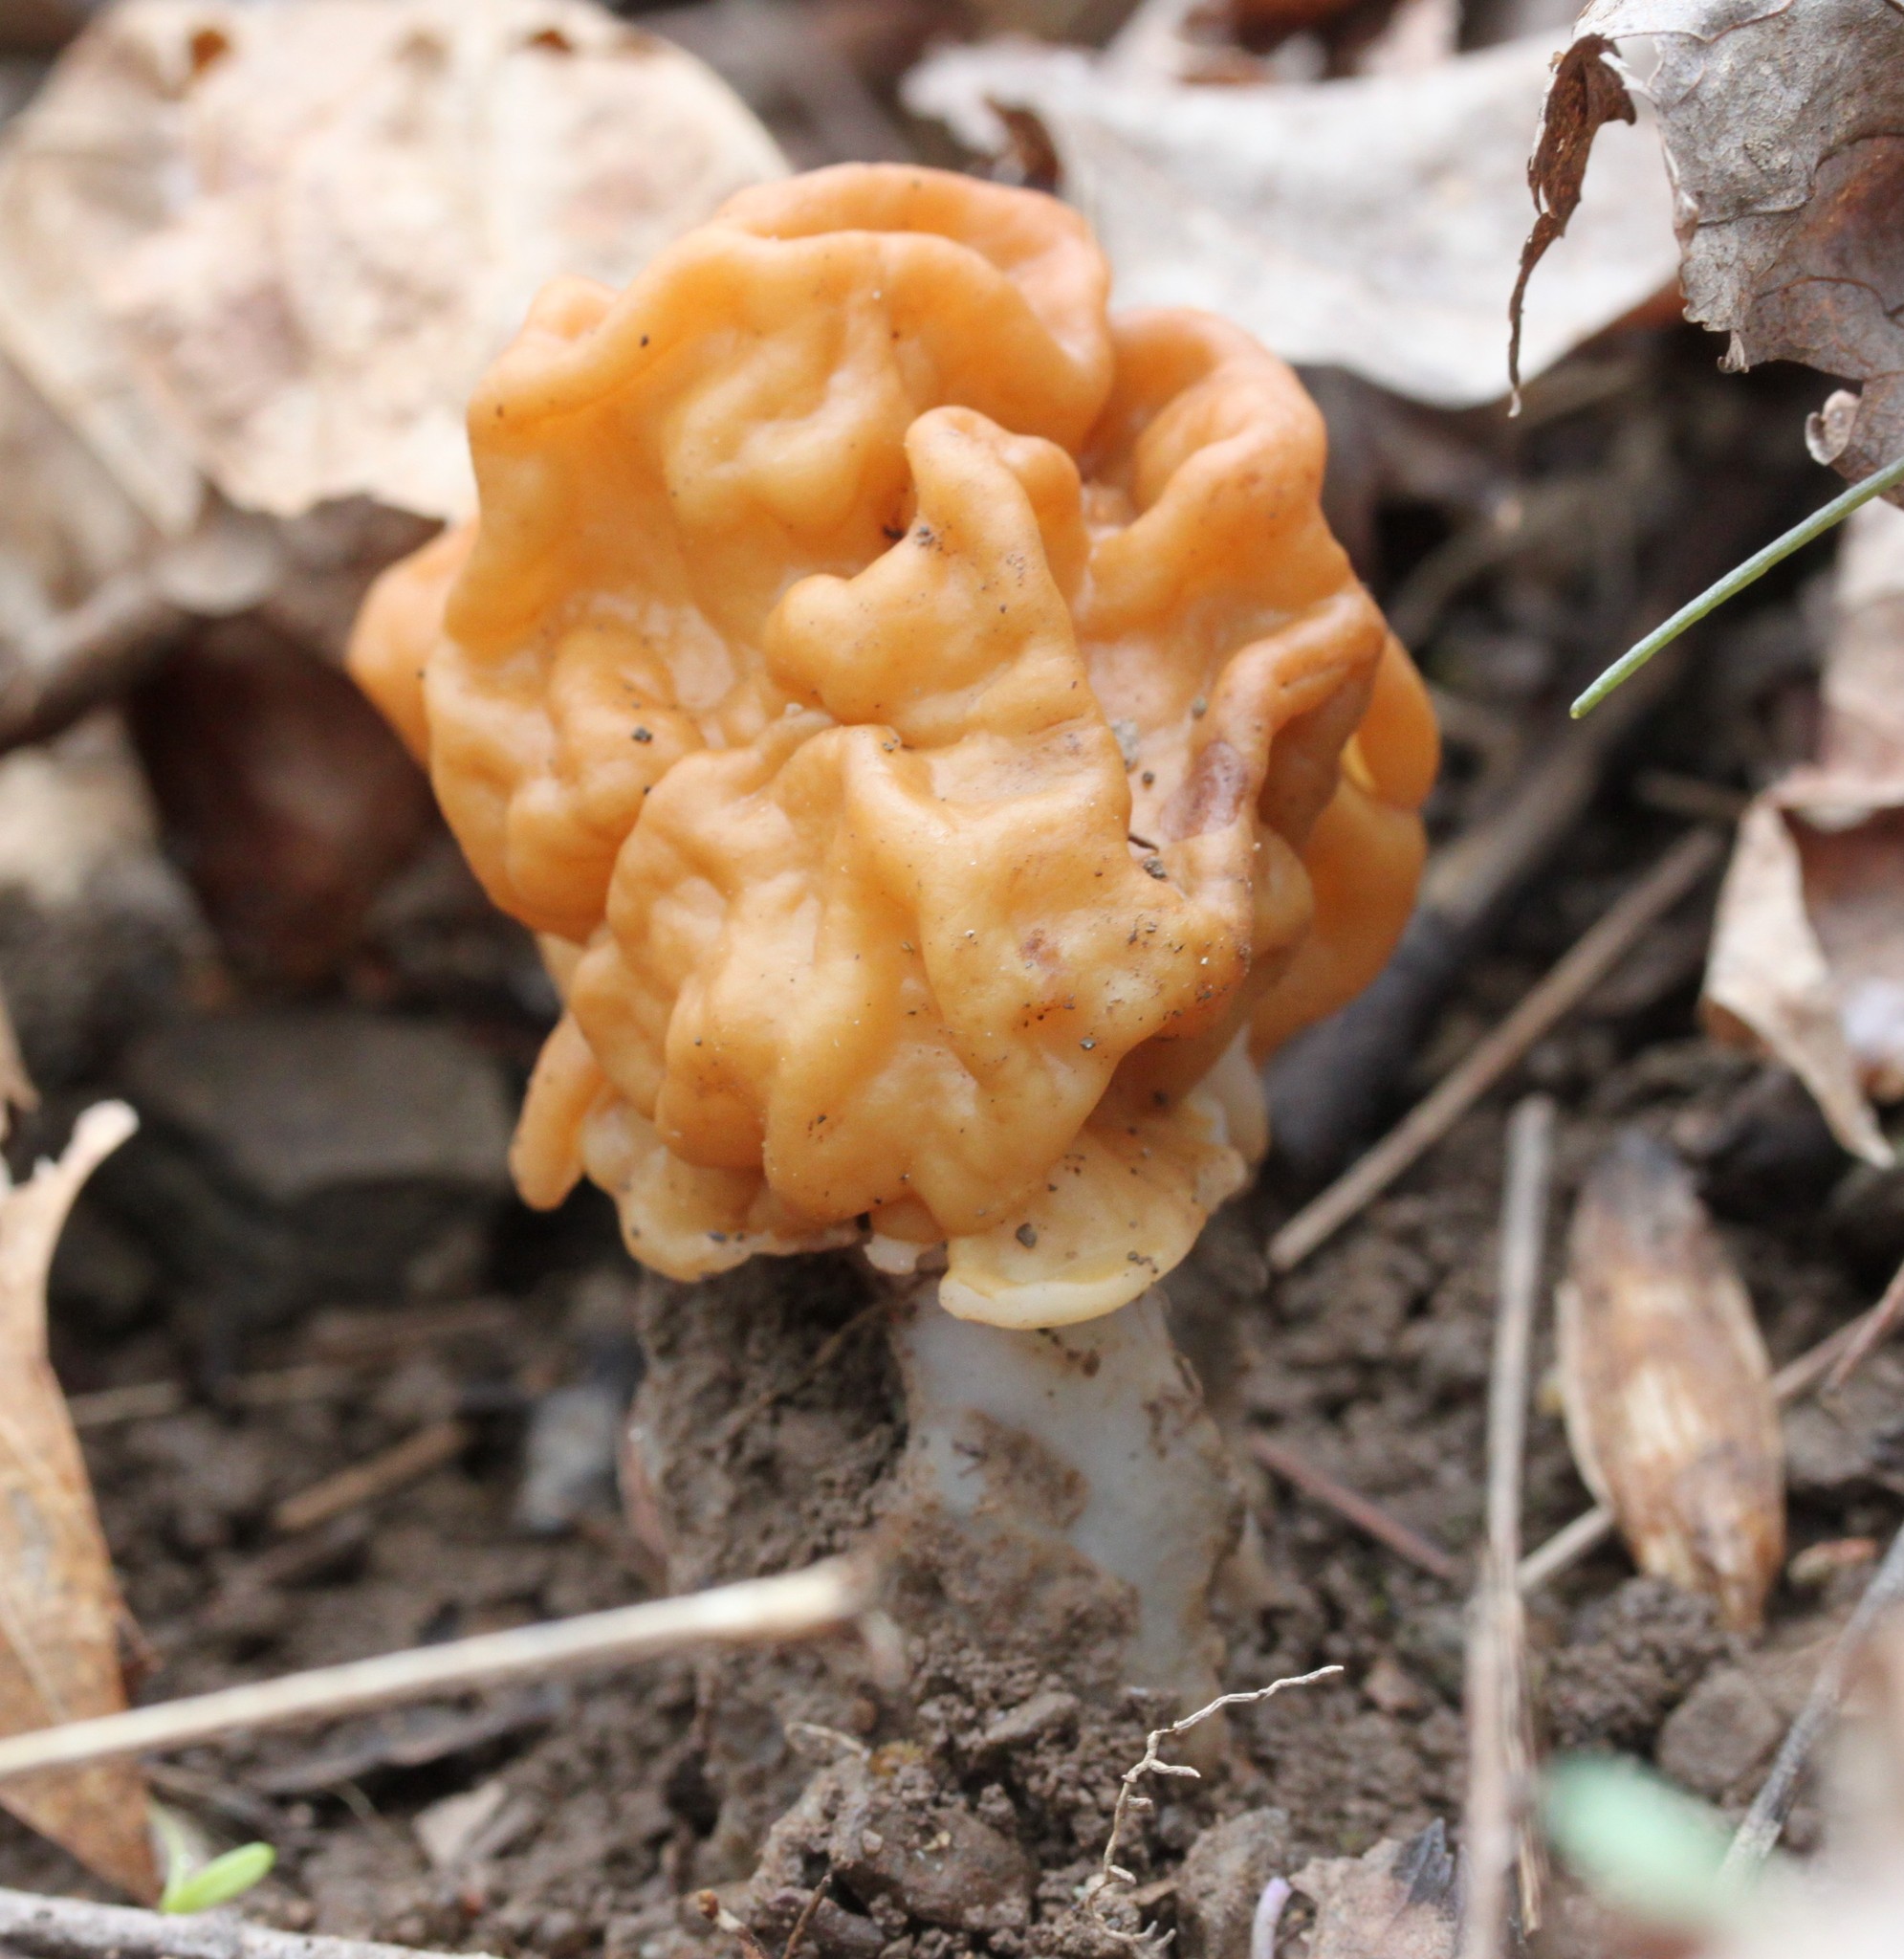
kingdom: Fungi
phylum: Ascomycota
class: Pezizomycetes
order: Pezizales
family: Discinaceae
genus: Gyromitra
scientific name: Gyromitra korfii
